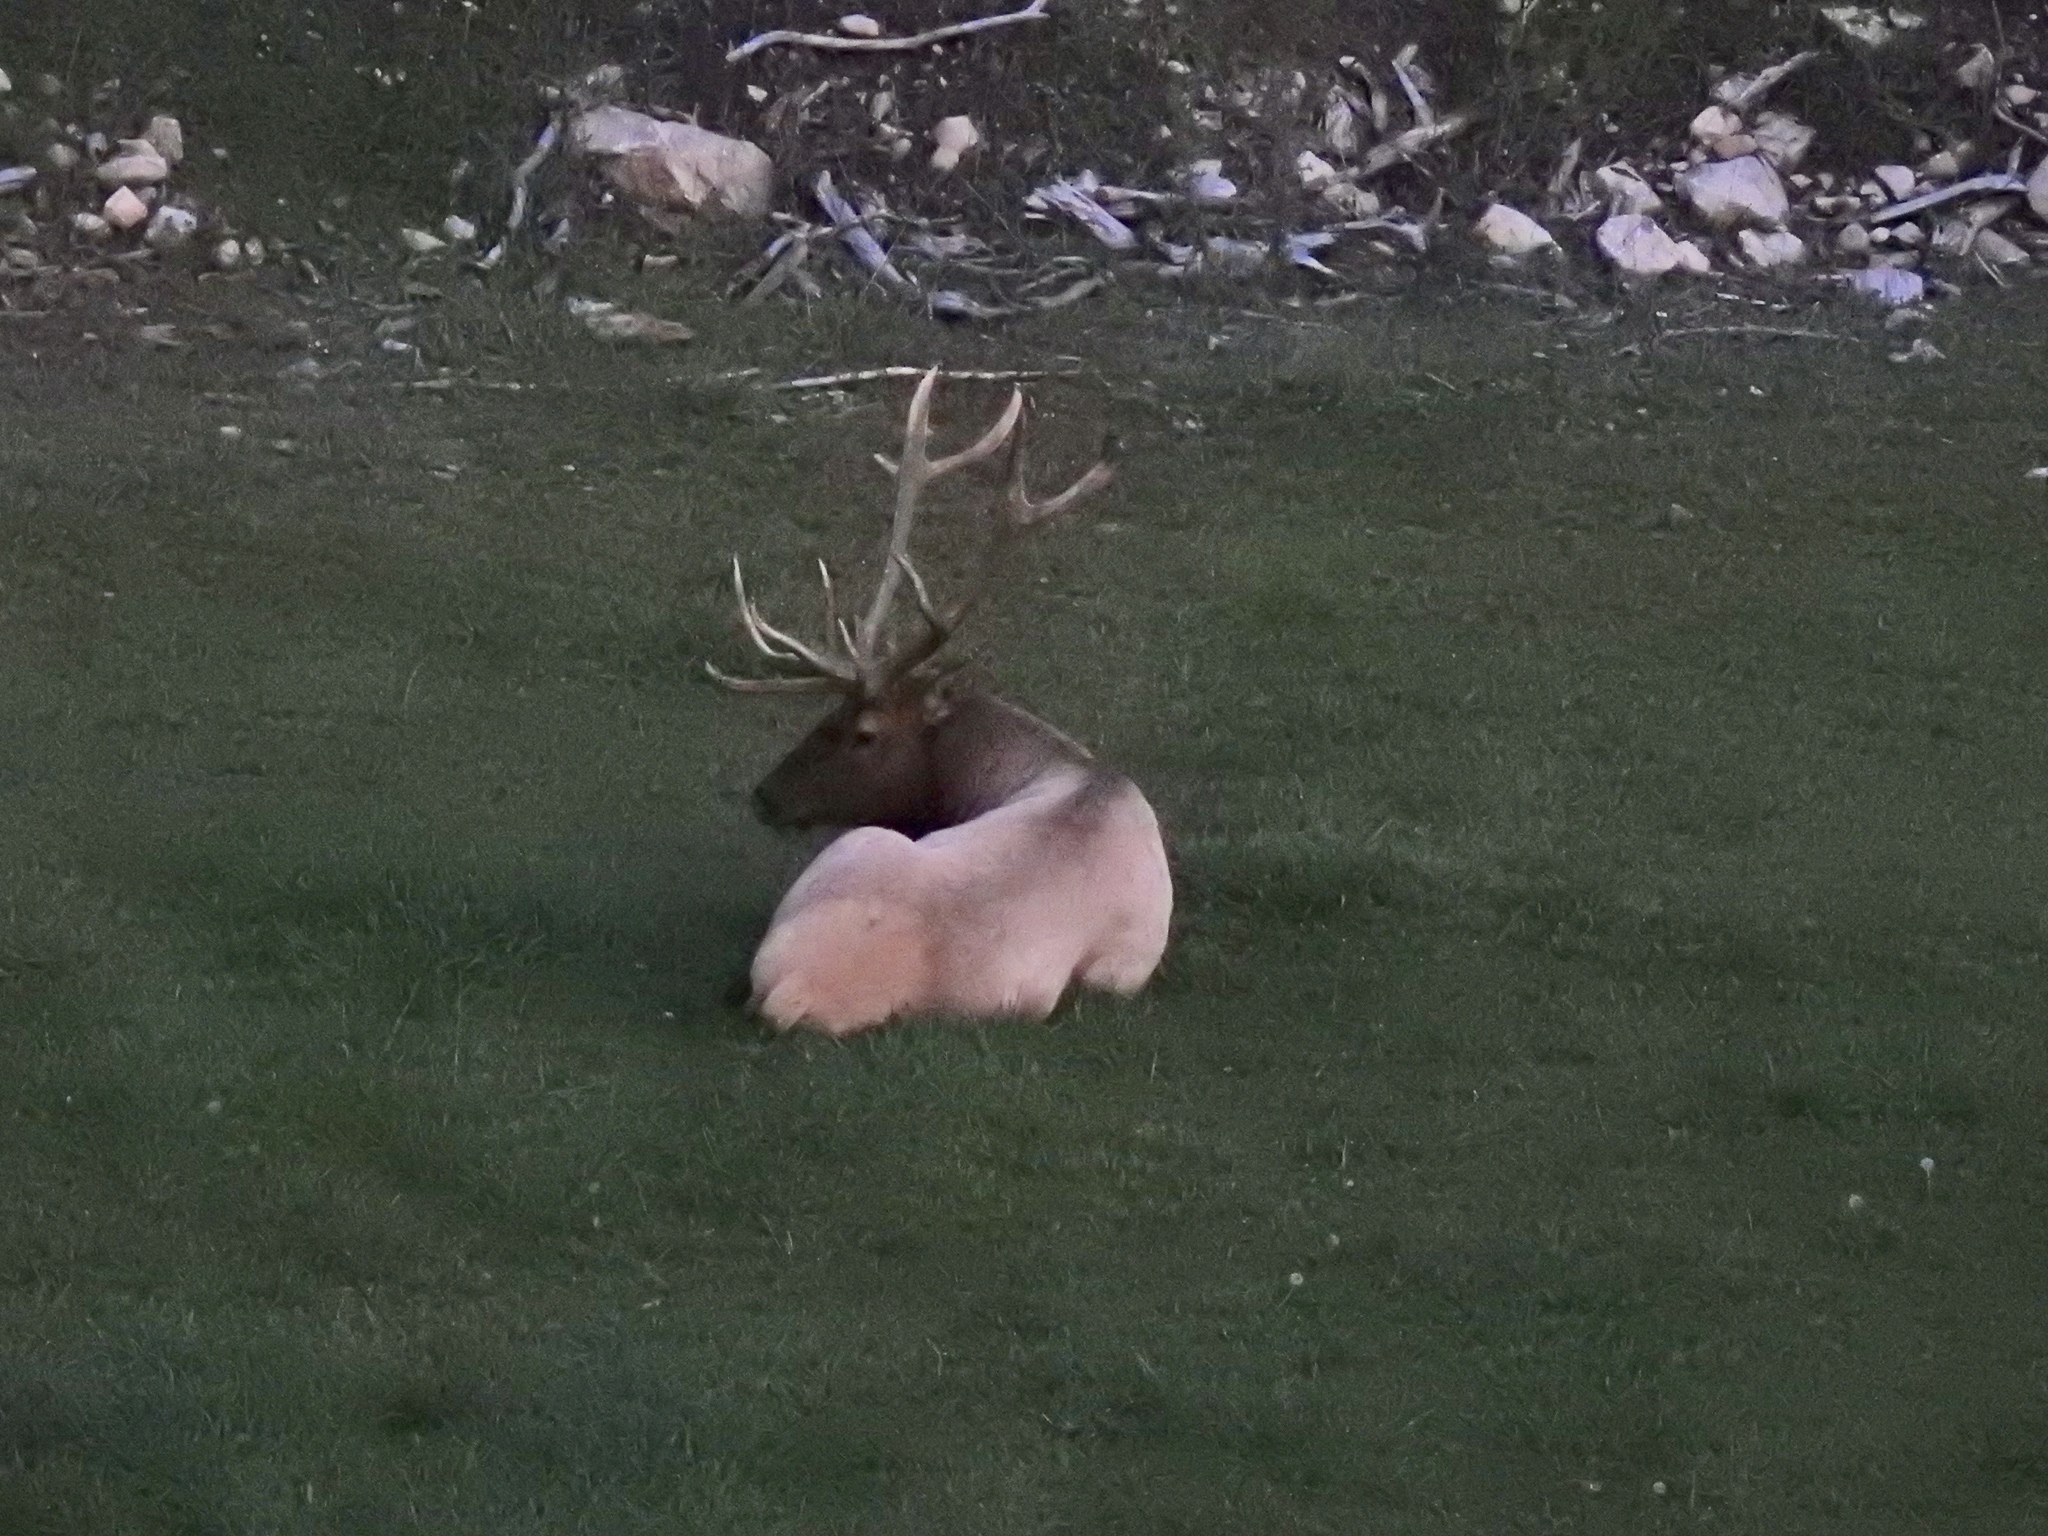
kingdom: Animalia
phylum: Chordata
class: Mammalia
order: Artiodactyla
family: Cervidae
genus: Cervus
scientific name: Cervus elaphus
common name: Red deer
